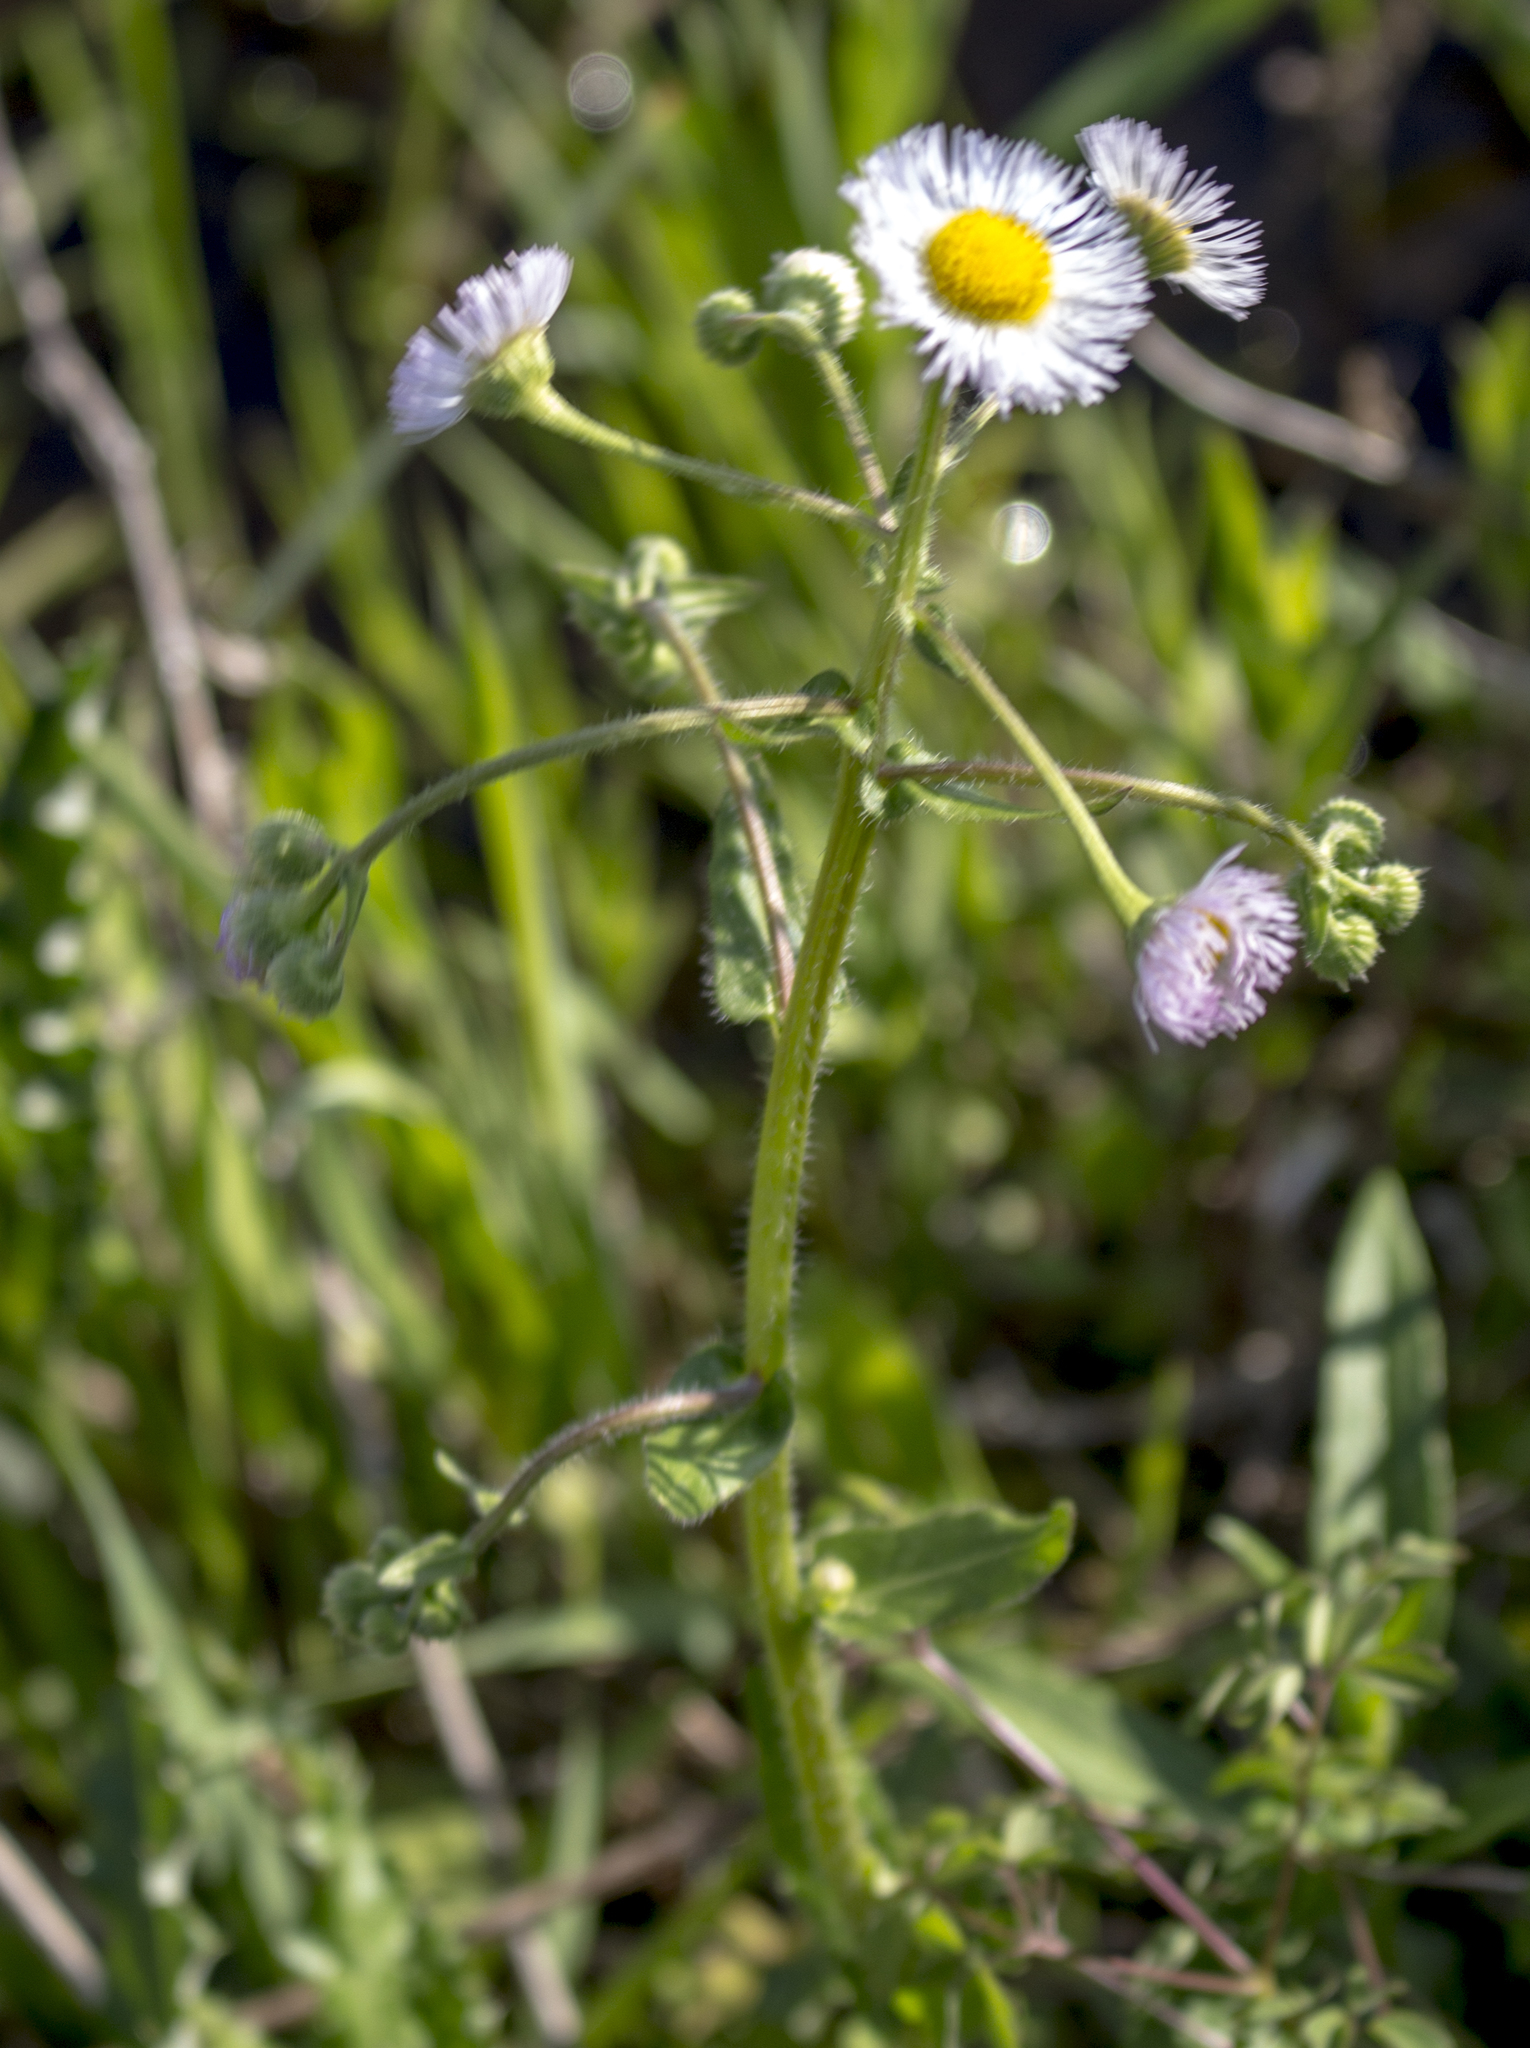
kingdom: Plantae
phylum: Tracheophyta
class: Magnoliopsida
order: Asterales
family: Asteraceae
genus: Erigeron
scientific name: Erigeron philadelphicus
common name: Robin's-plantain
